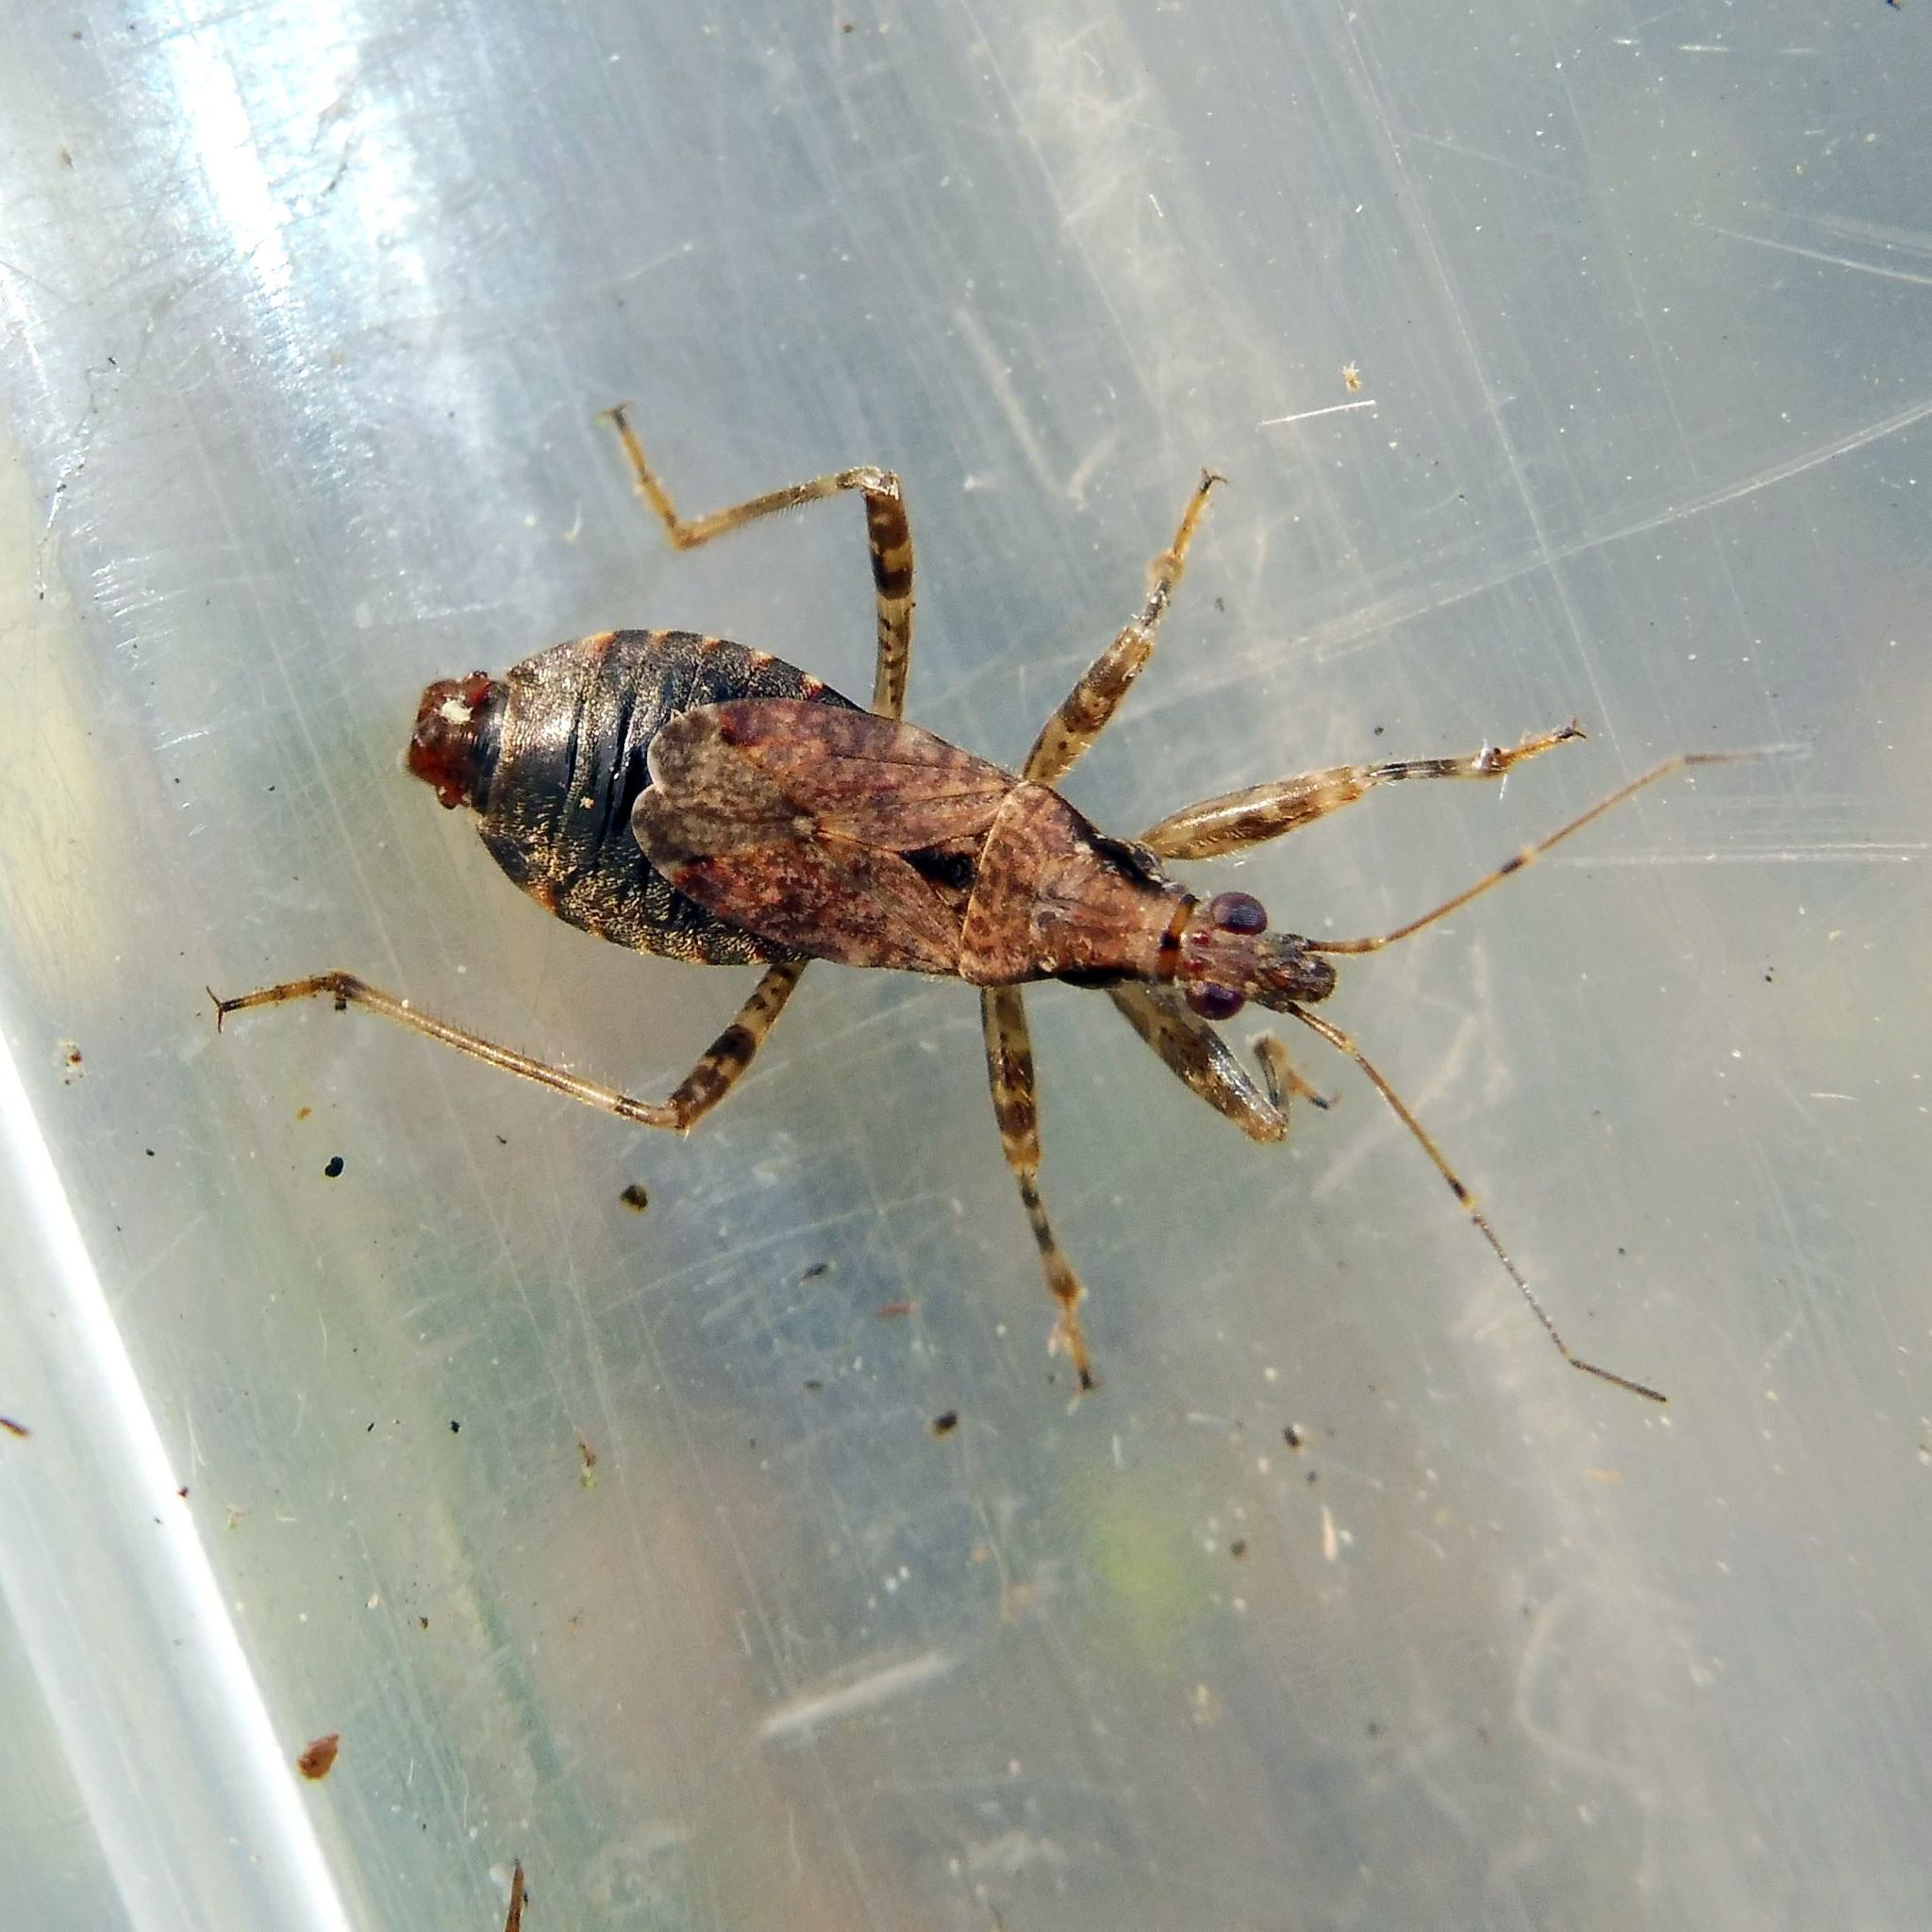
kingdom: Animalia
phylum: Arthropoda
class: Insecta
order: Hemiptera
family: Nabidae
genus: Himacerus
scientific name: Himacerus mirmicoides
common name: Ant damsel bug
